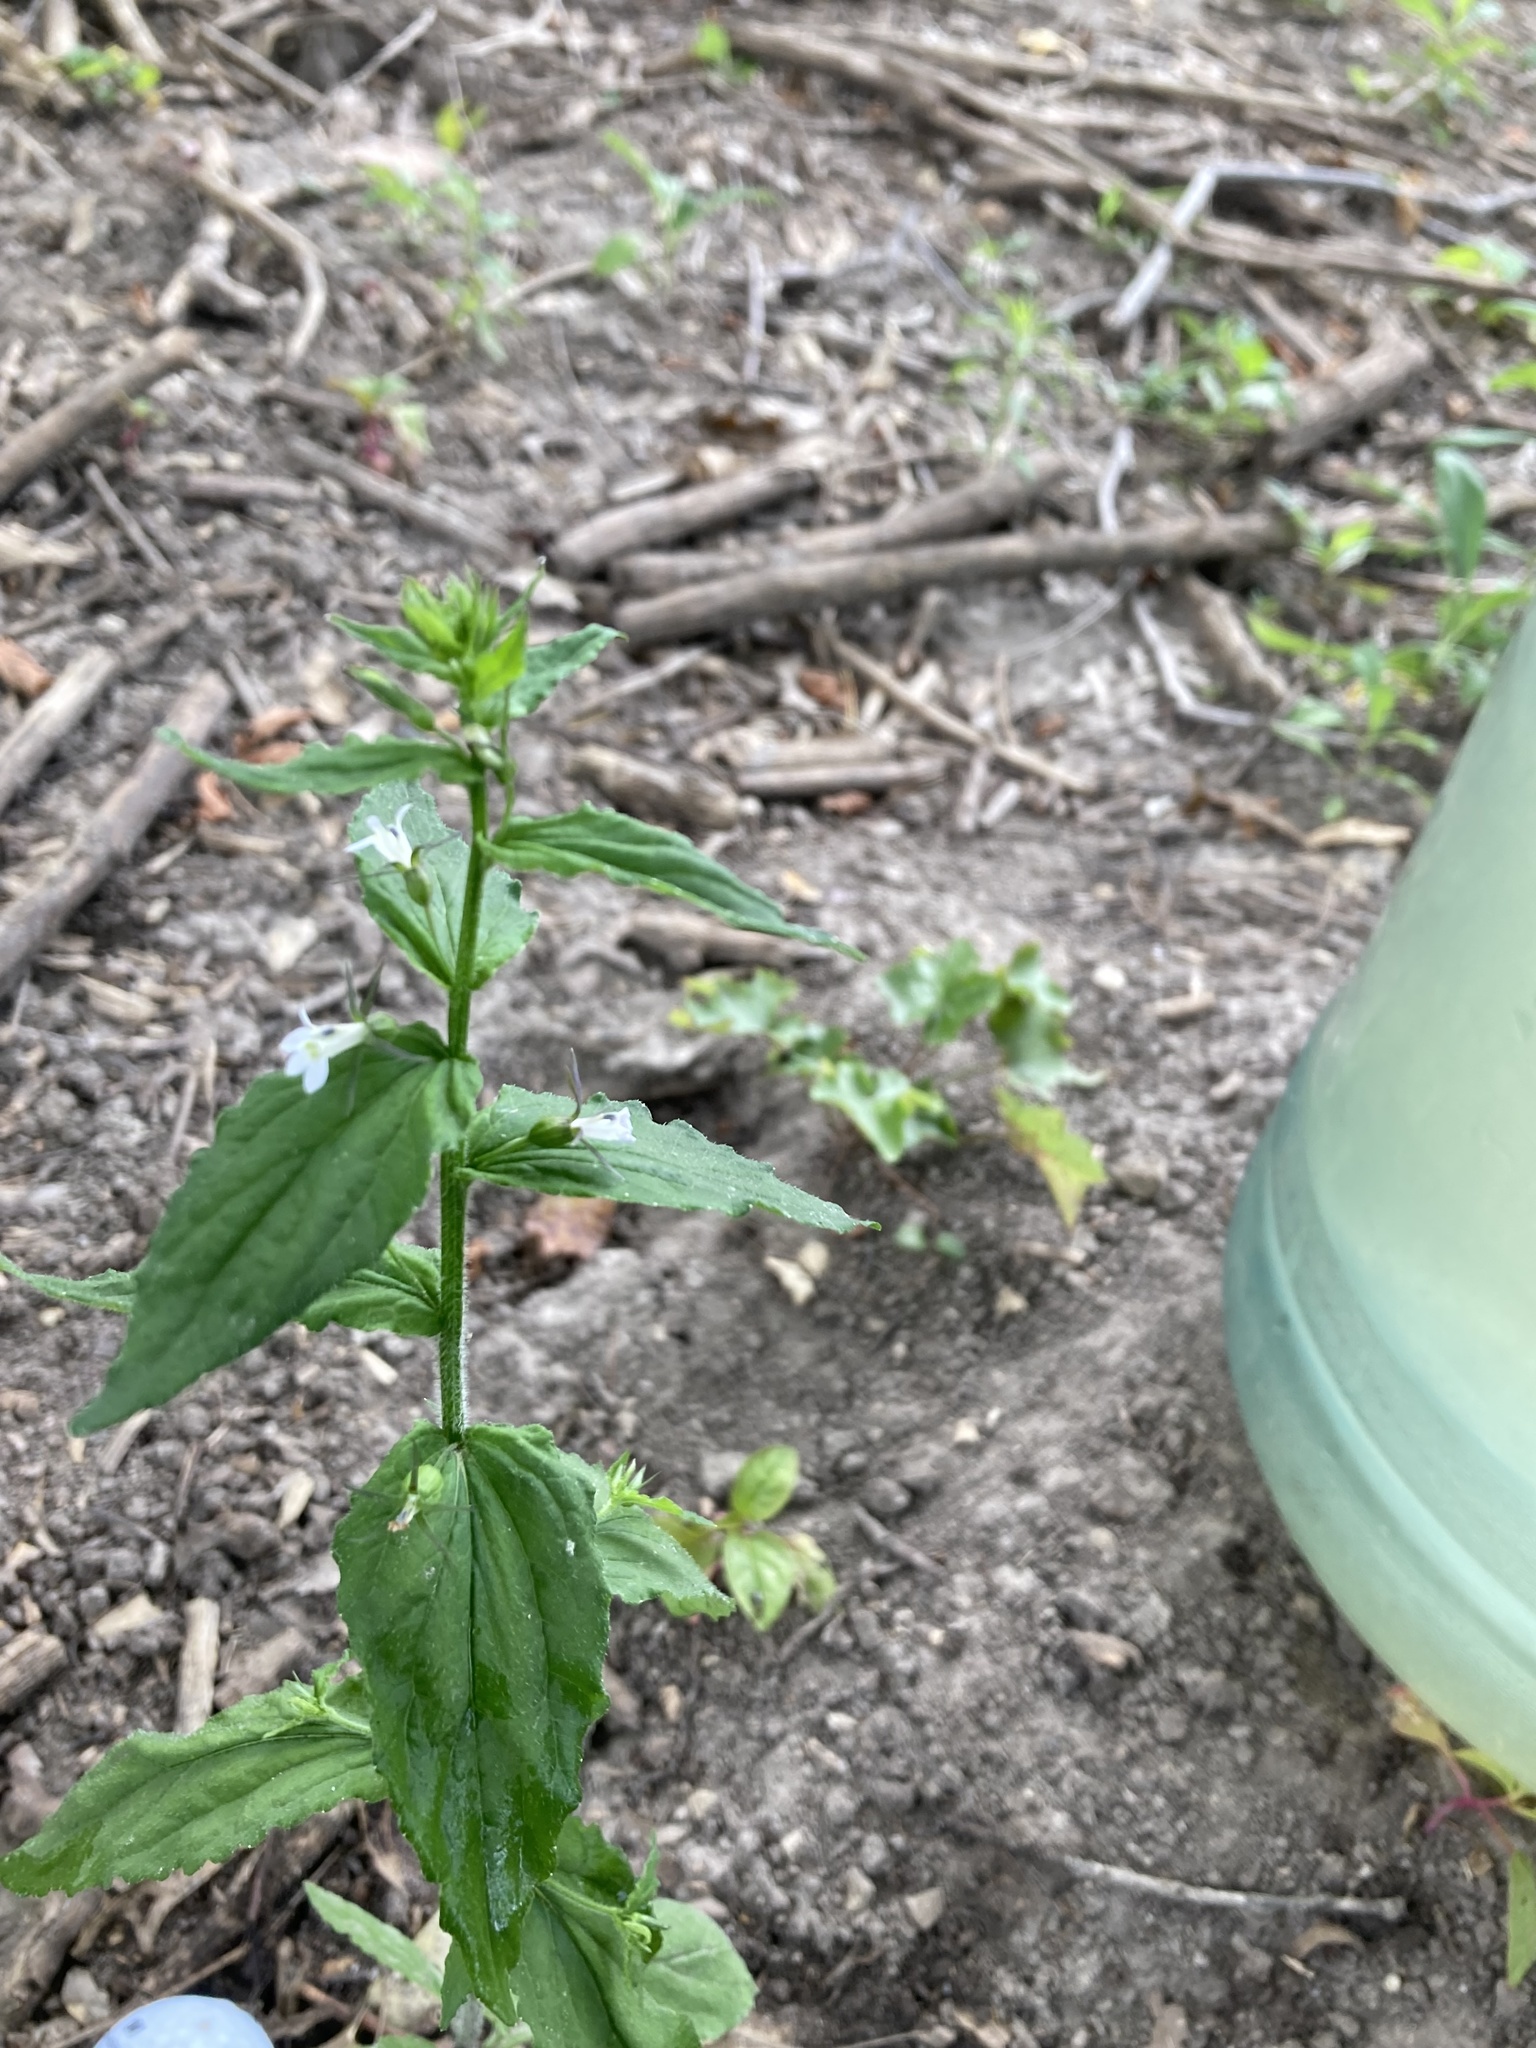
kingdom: Plantae
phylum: Tracheophyta
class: Magnoliopsida
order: Asterales
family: Campanulaceae
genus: Lobelia
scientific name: Lobelia inflata
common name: Indian tobacco
